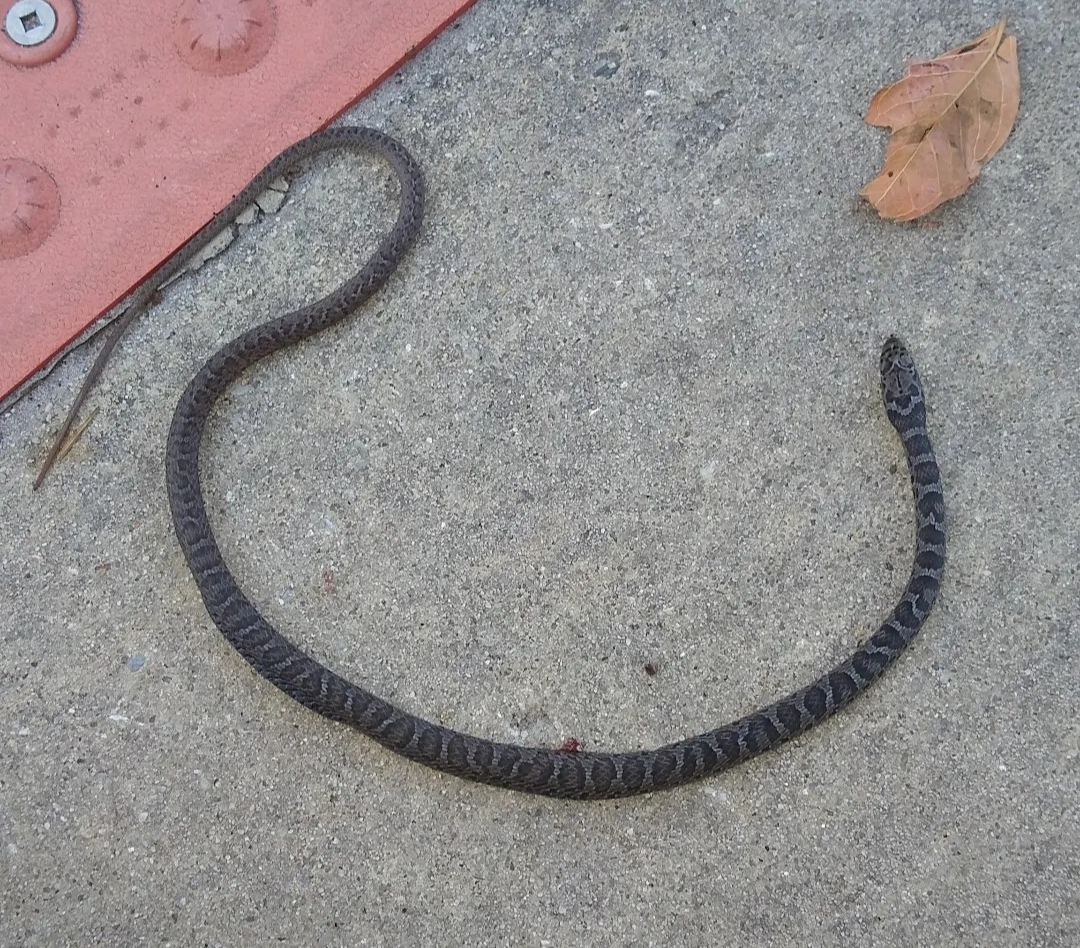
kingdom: Animalia
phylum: Chordata
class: Squamata
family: Colubridae
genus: Coluber
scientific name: Coluber constrictor
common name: Eastern racer
